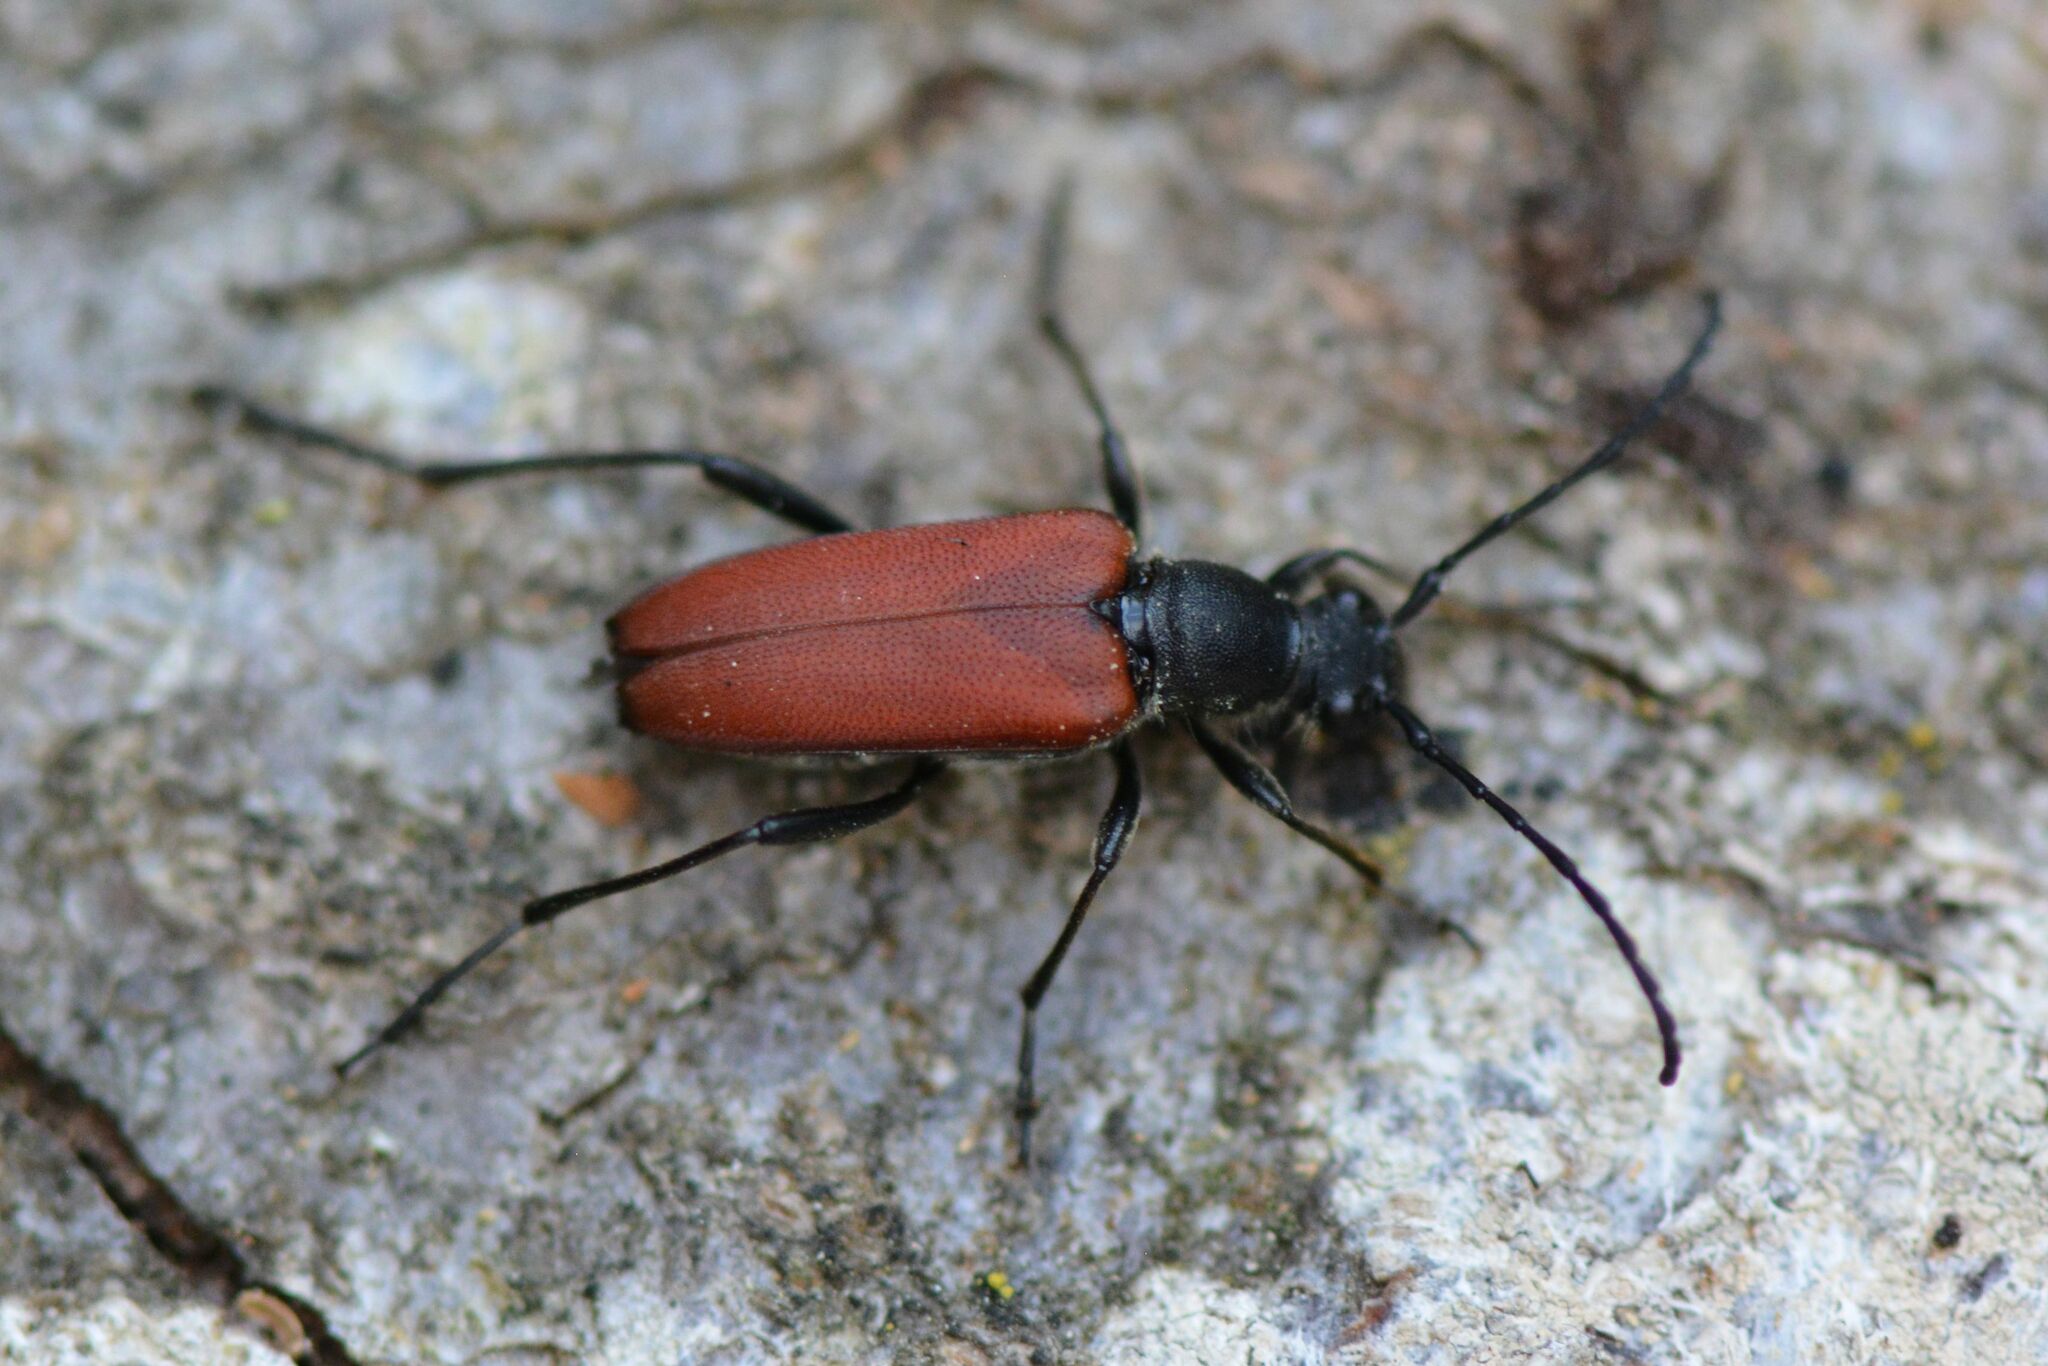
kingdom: Animalia
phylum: Arthropoda
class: Insecta
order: Coleoptera
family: Cerambycidae
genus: Anastrangalia
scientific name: Anastrangalia sanguinolenta
